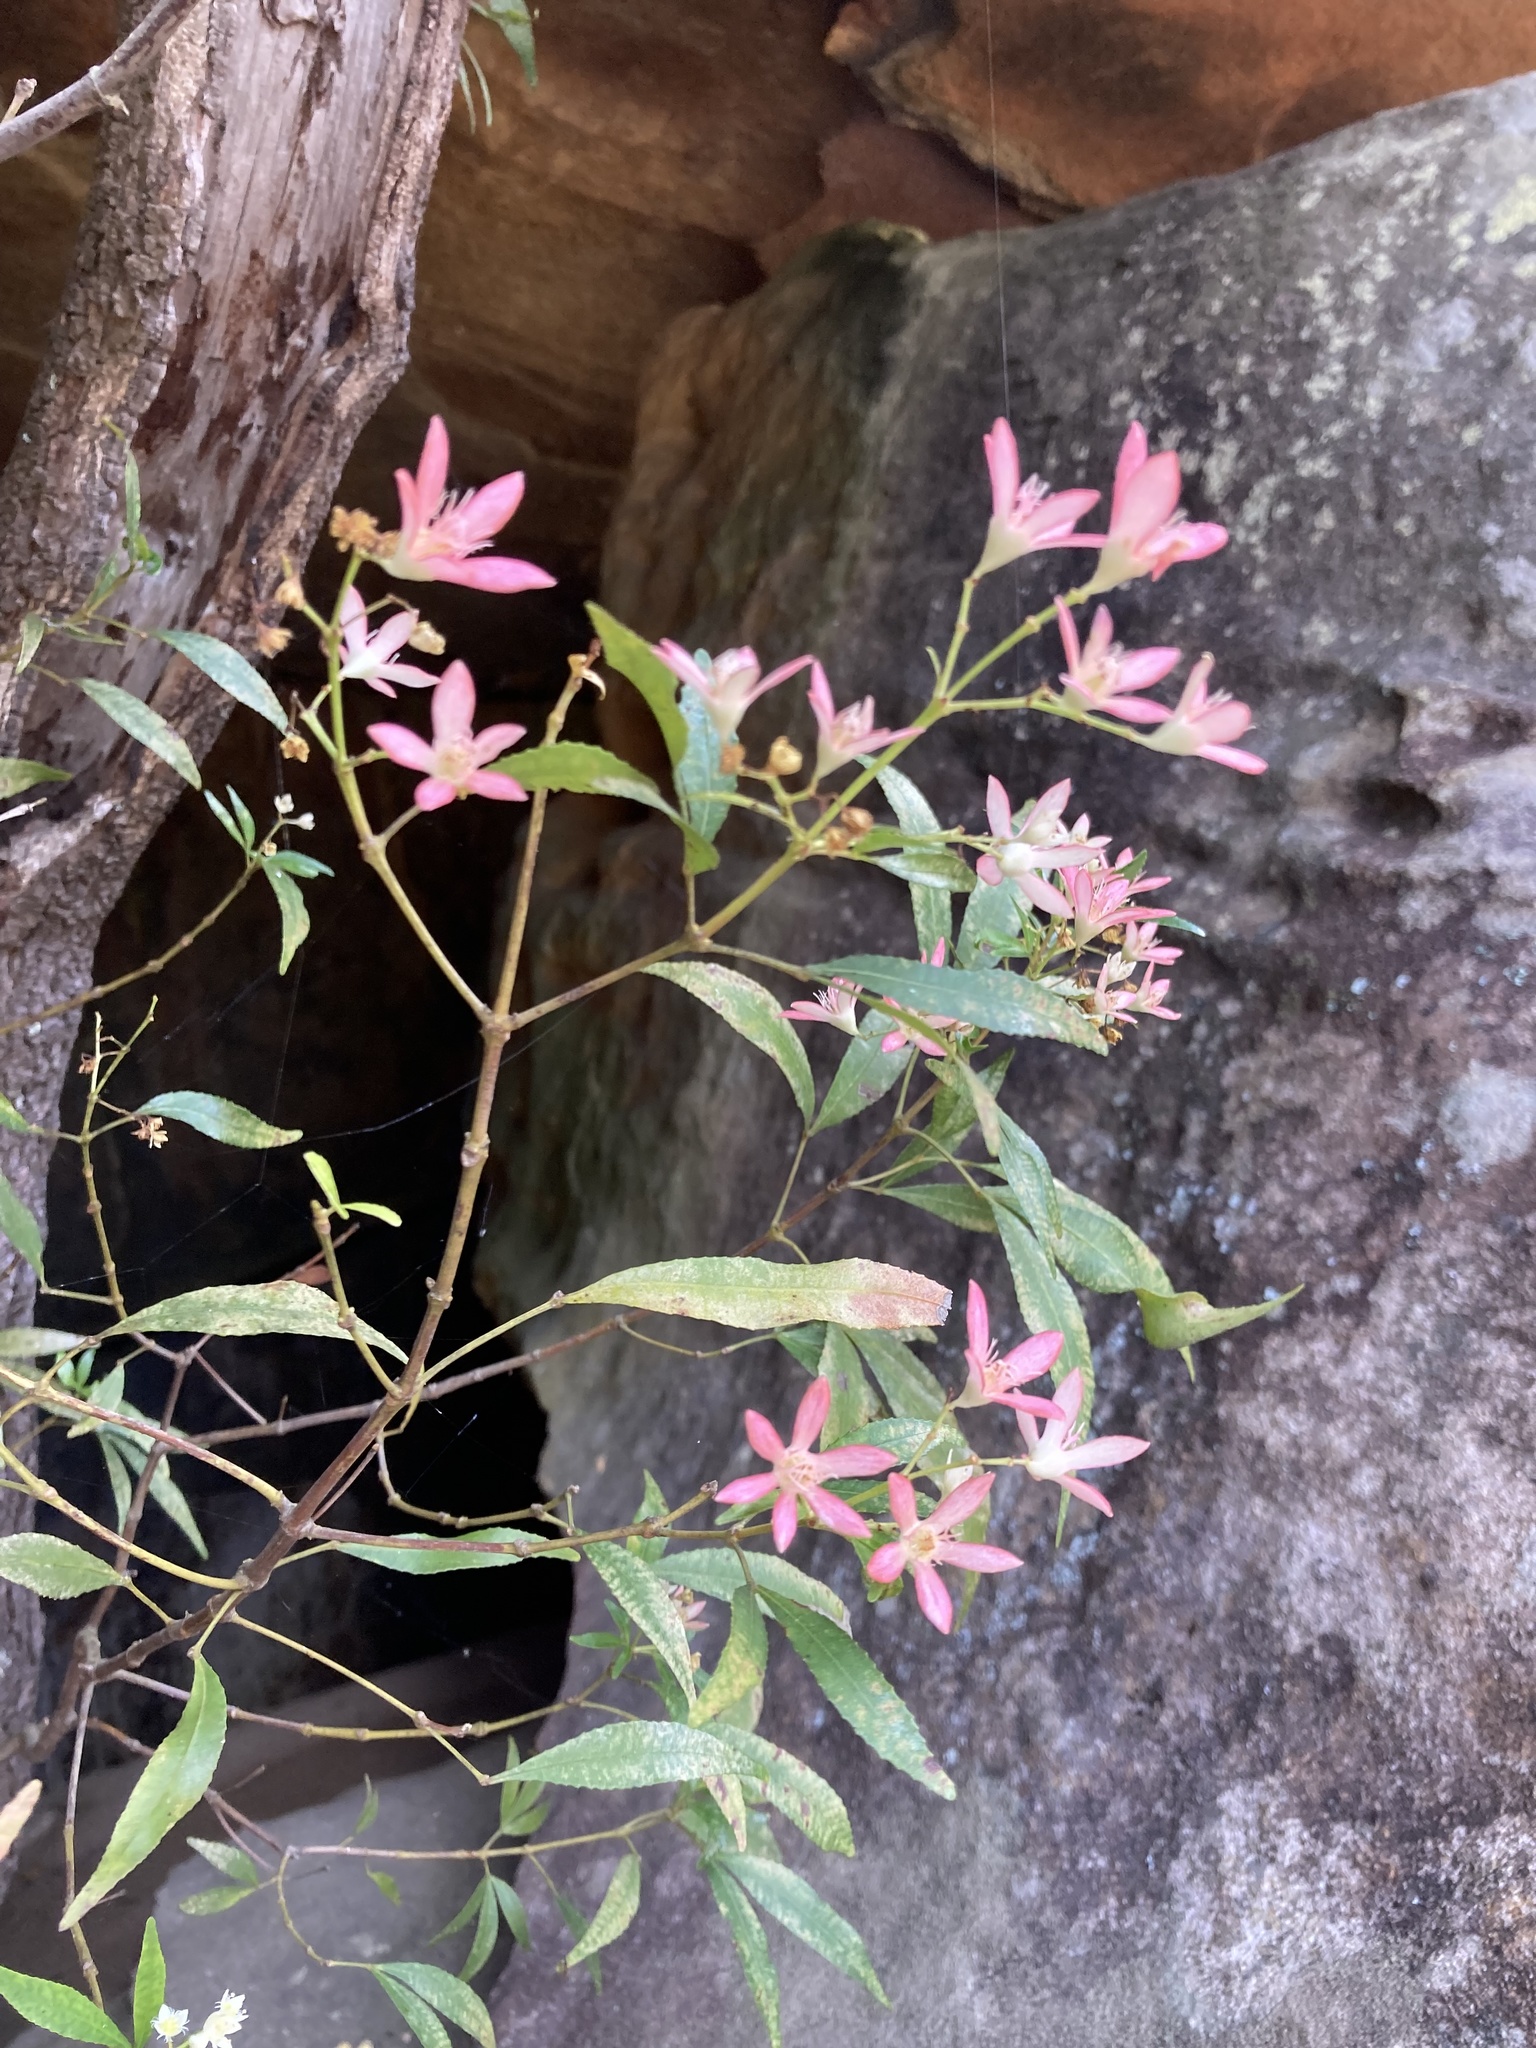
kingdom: Plantae
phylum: Tracheophyta
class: Magnoliopsida
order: Oxalidales
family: Cunoniaceae
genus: Ceratopetalum
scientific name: Ceratopetalum gummiferum
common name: Christmasbush
